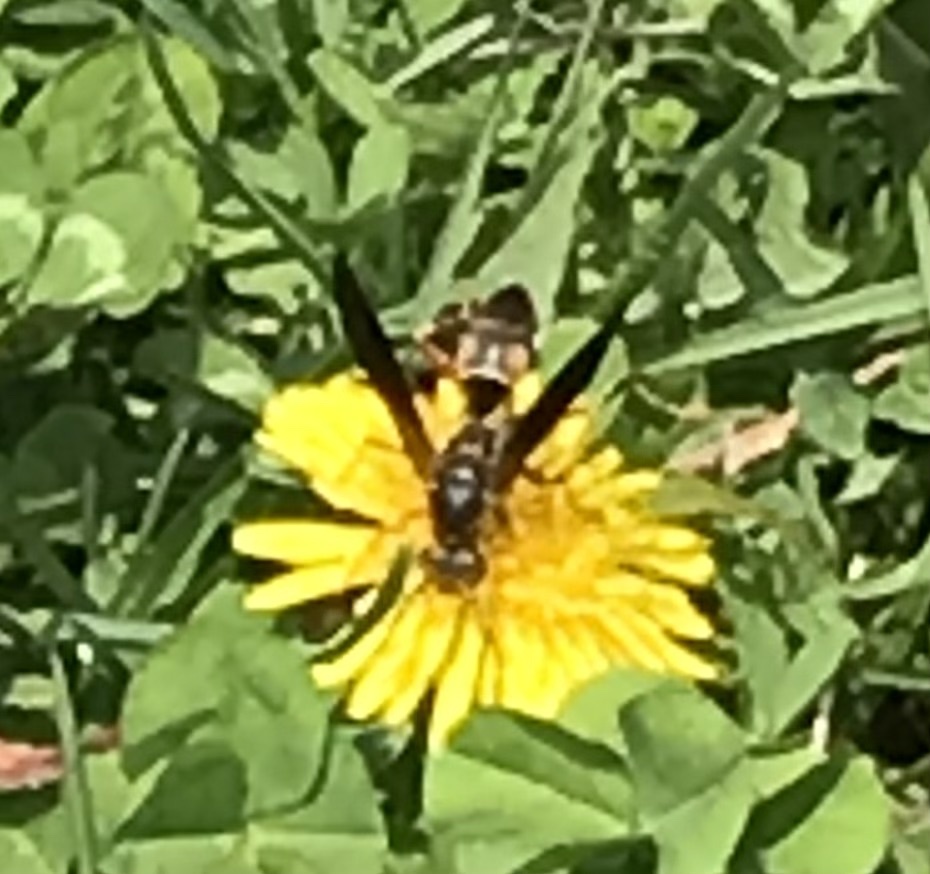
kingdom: Animalia
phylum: Arthropoda
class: Insecta
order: Hymenoptera
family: Eumenidae
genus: Polistes
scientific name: Polistes fuscatus
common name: Dark paper wasp
